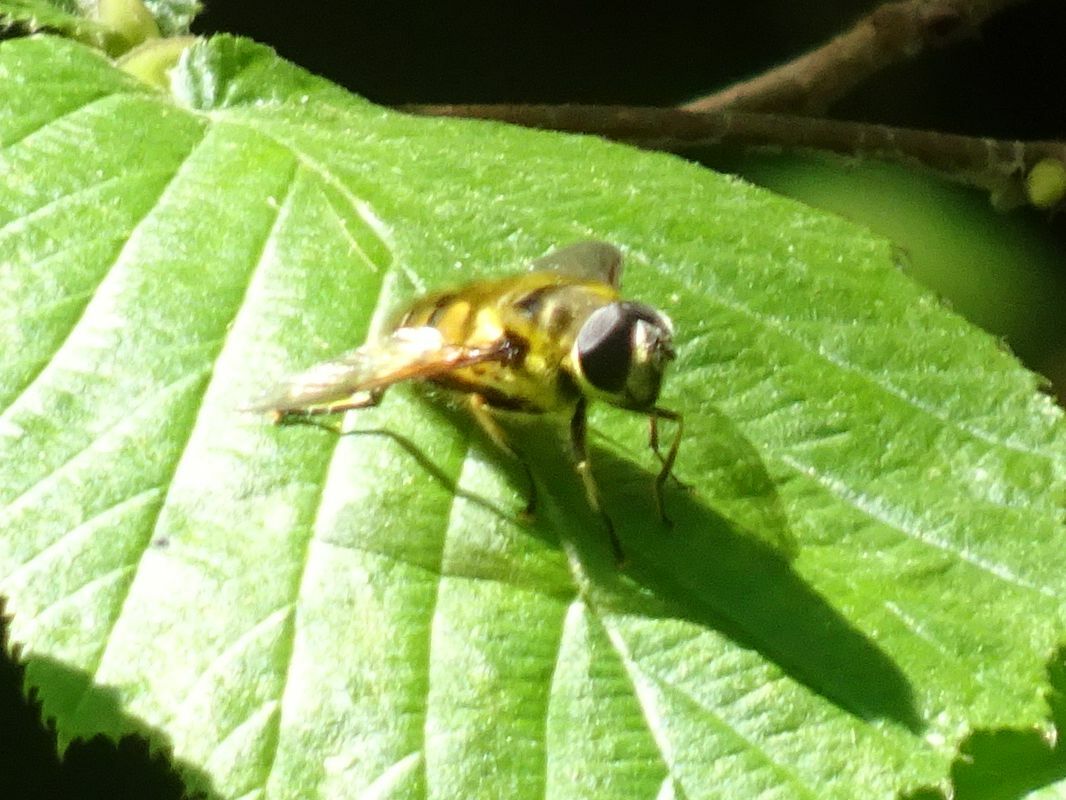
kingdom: Animalia
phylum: Arthropoda
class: Insecta
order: Diptera
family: Syrphidae
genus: Myathropa
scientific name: Myathropa florea
